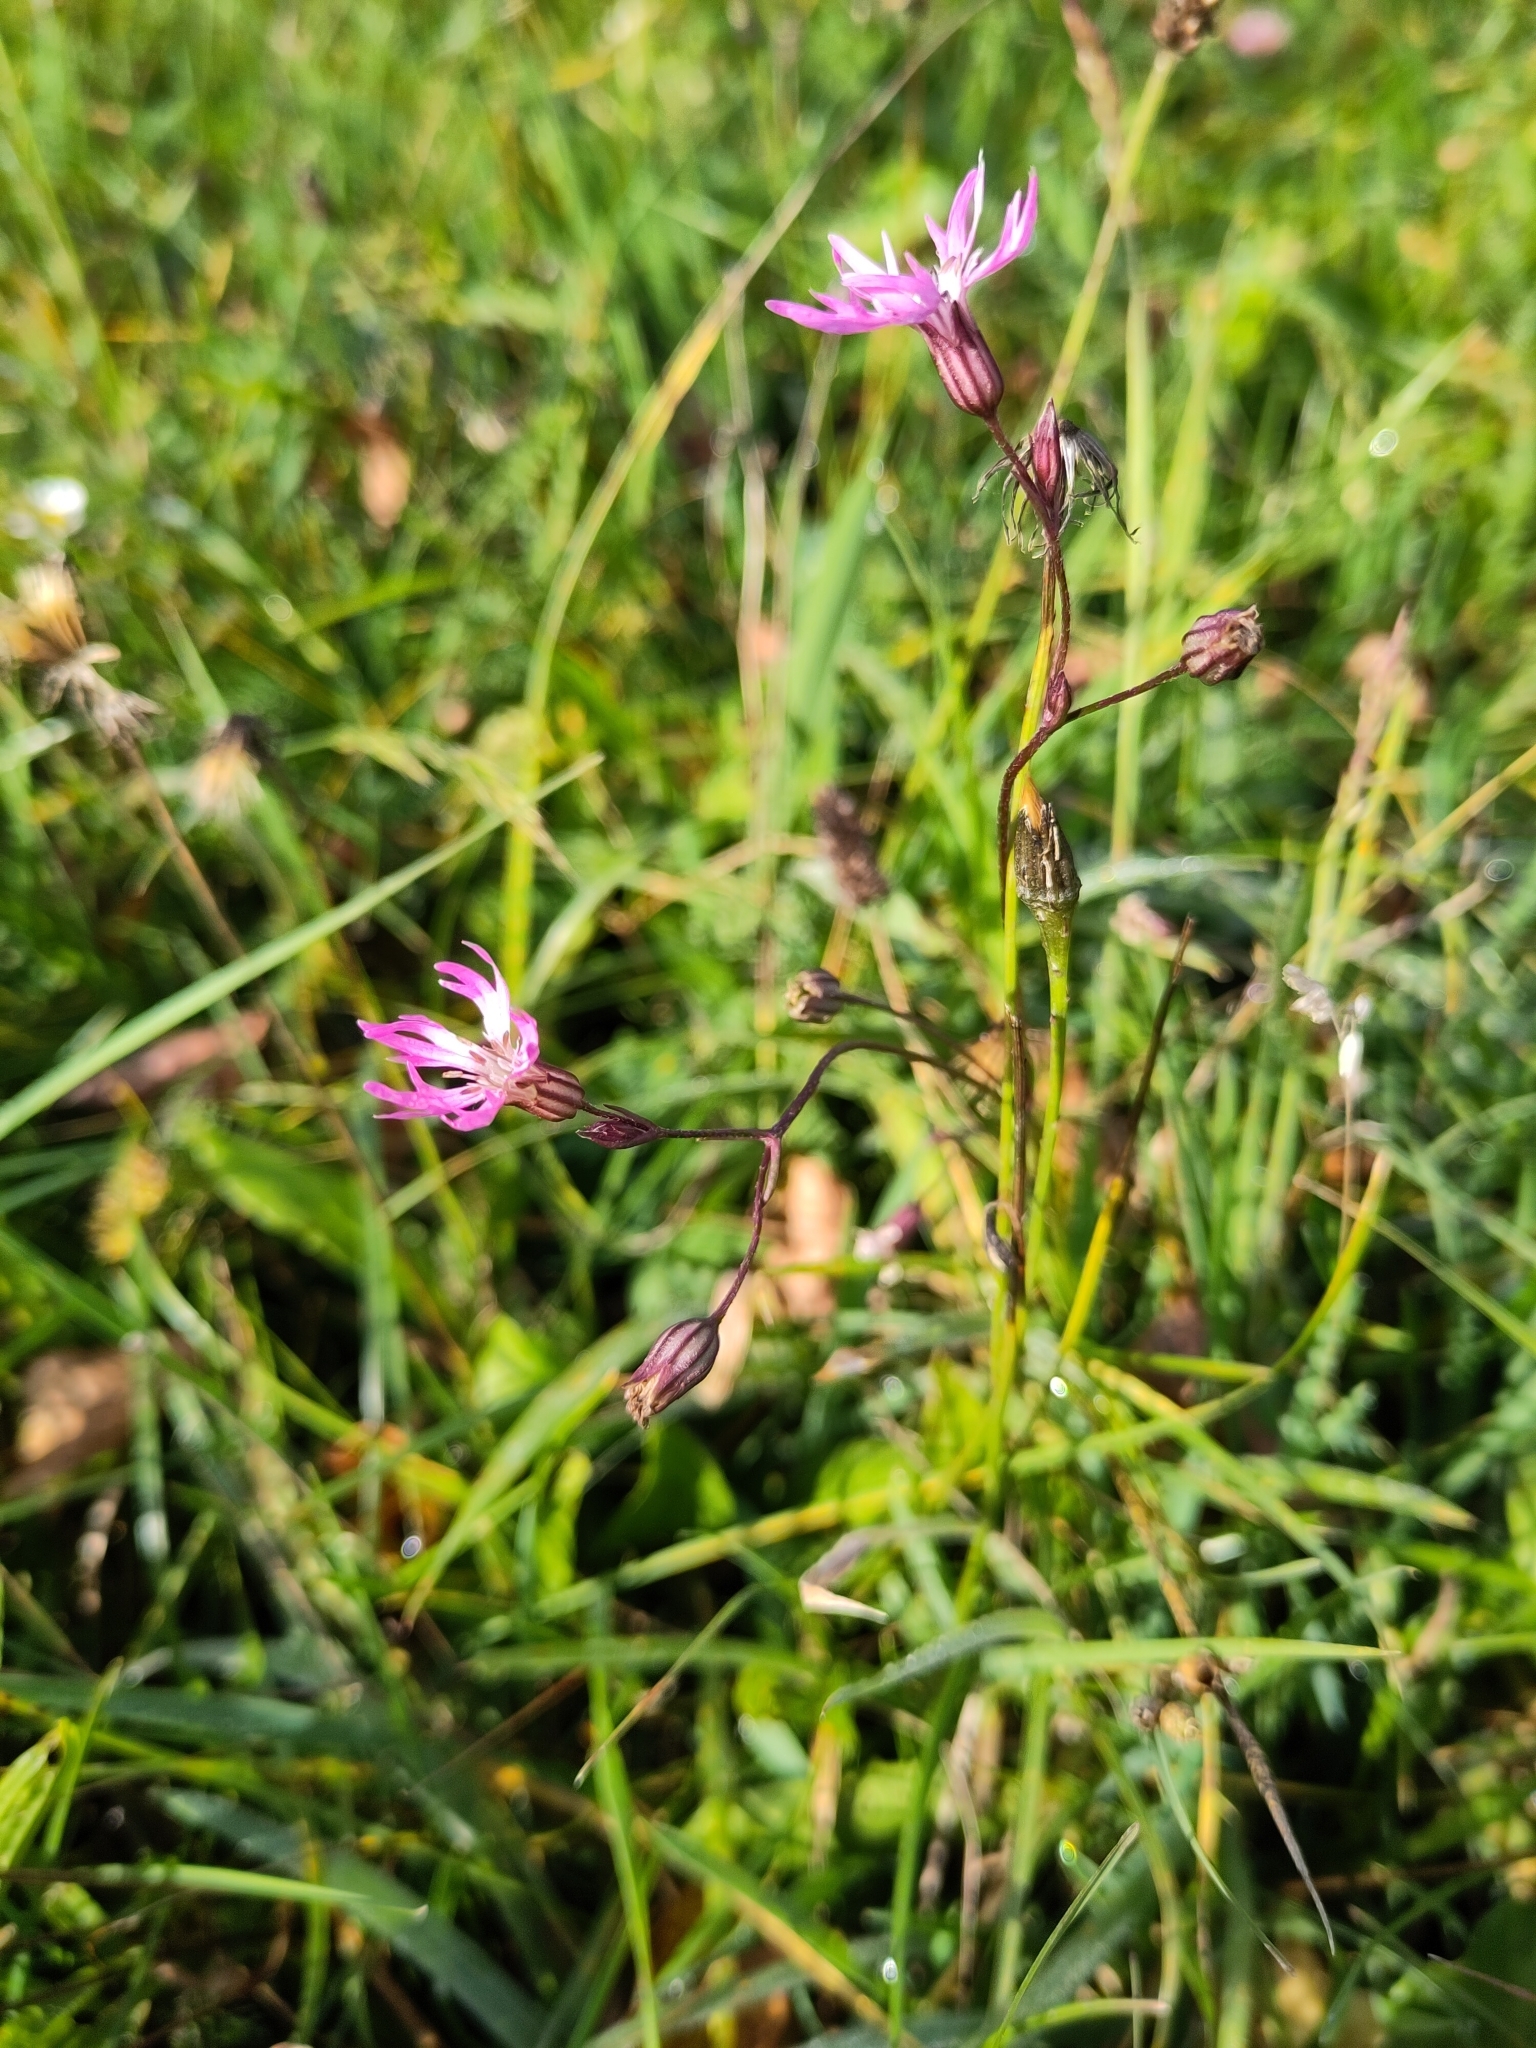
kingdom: Plantae
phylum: Tracheophyta
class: Magnoliopsida
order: Caryophyllales
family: Caryophyllaceae
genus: Silene
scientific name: Silene flos-cuculi
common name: Ragged-robin
